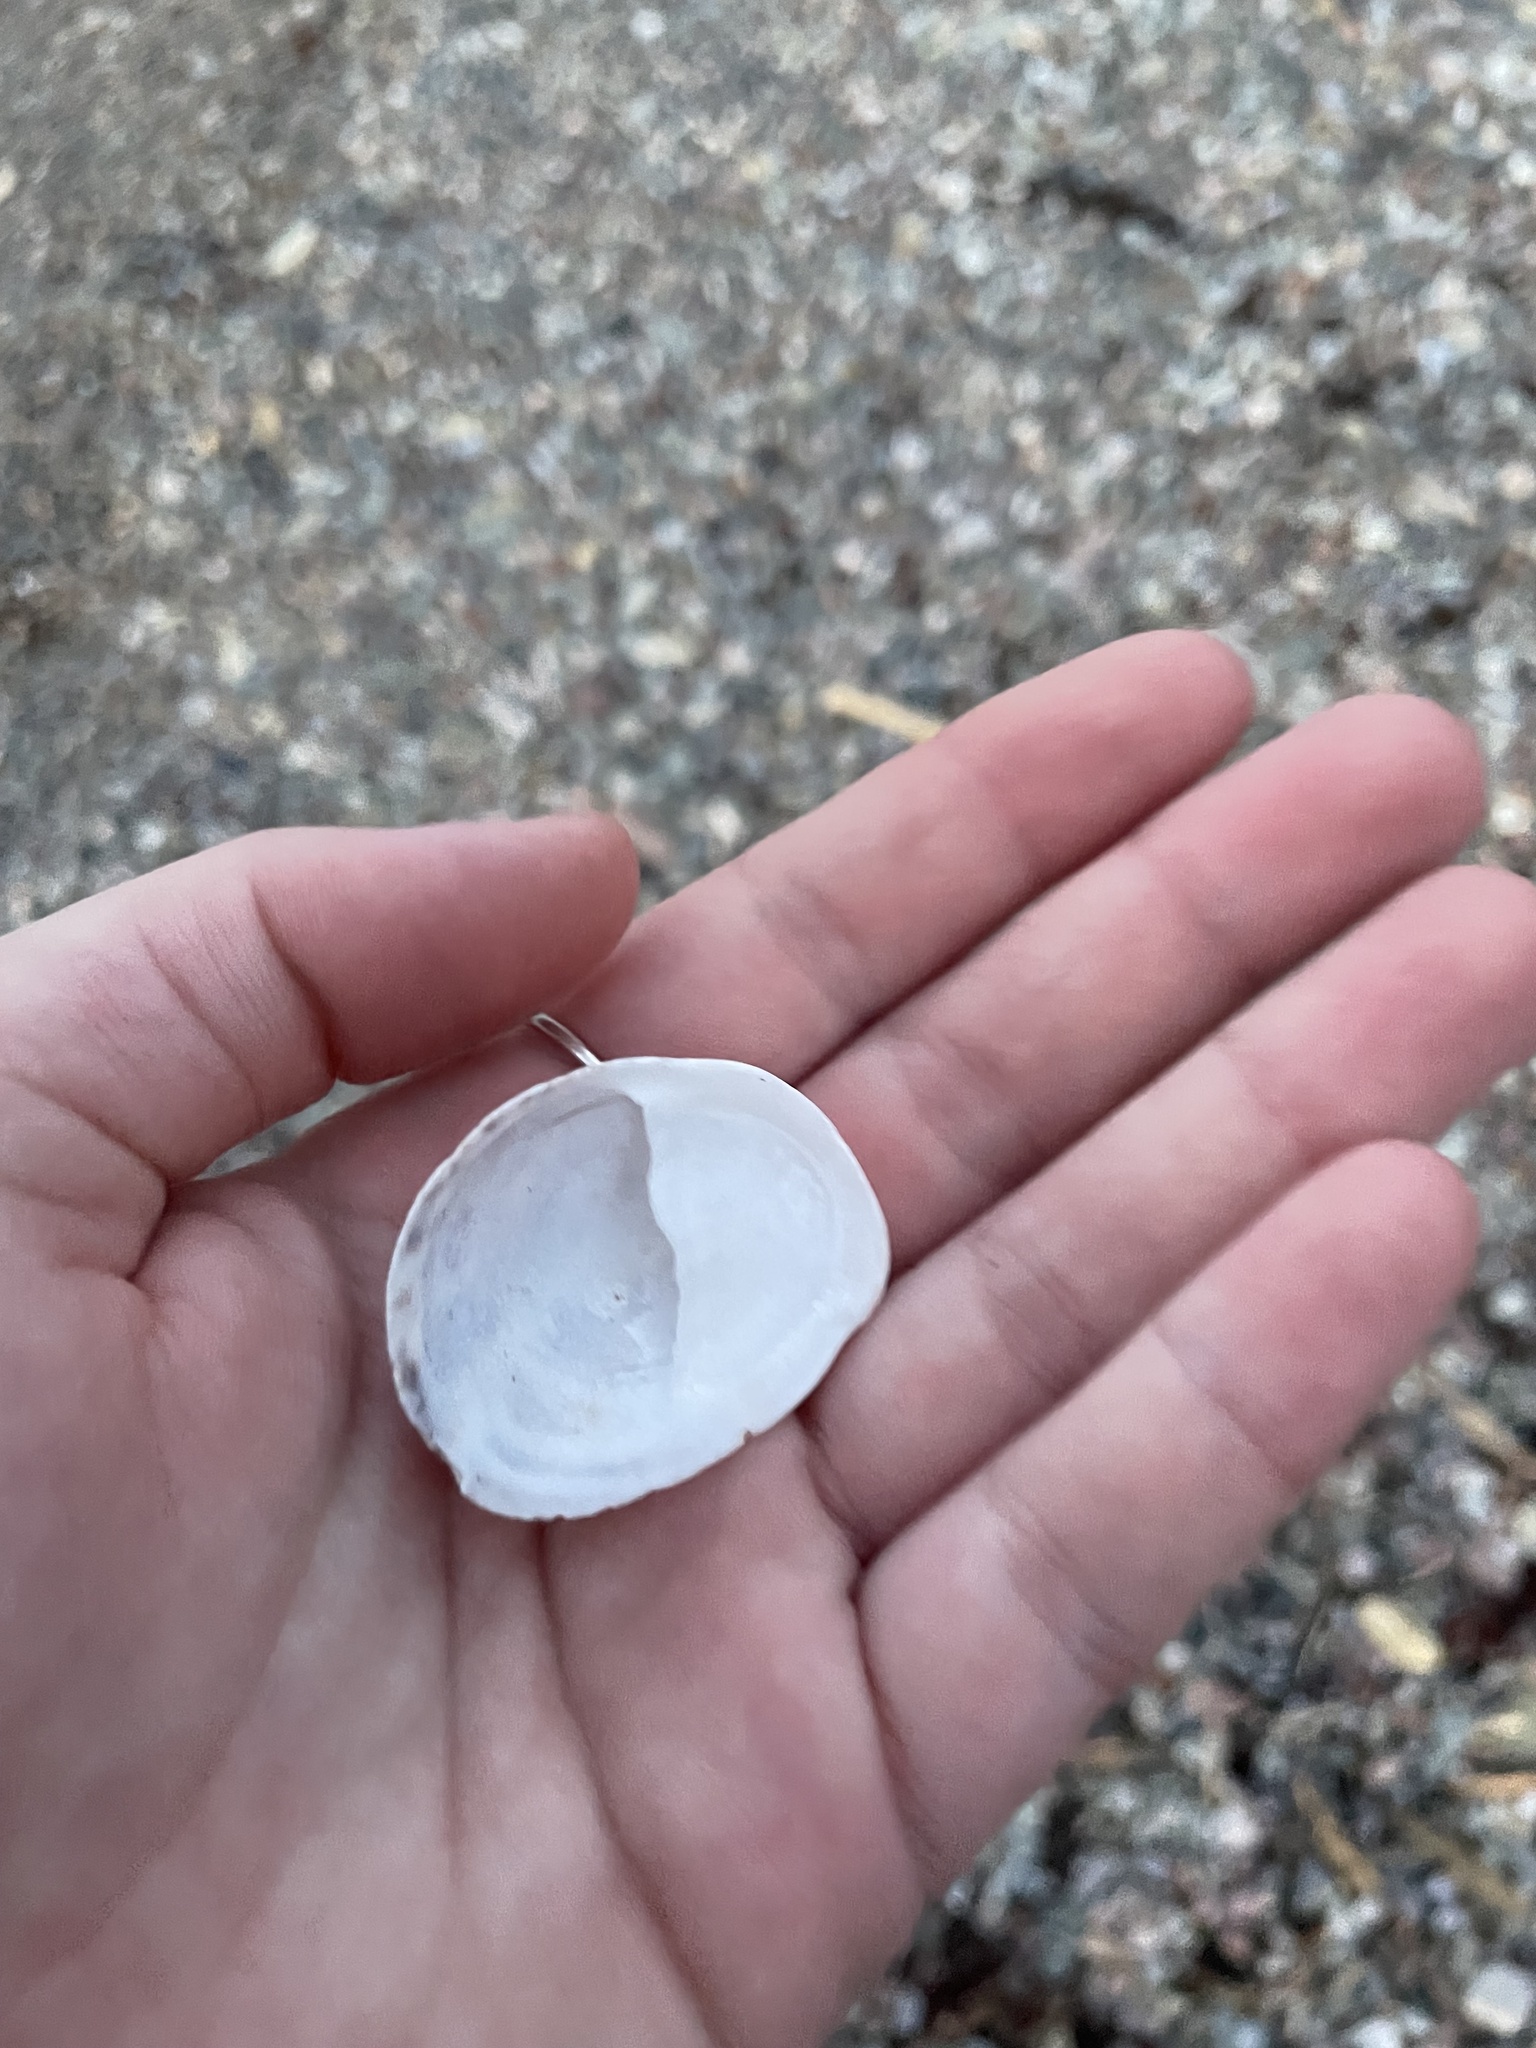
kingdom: Animalia
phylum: Mollusca
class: Gastropoda
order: Littorinimorpha
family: Calyptraeidae
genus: Crepidula
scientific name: Crepidula fornicata
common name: Slipper limpet
